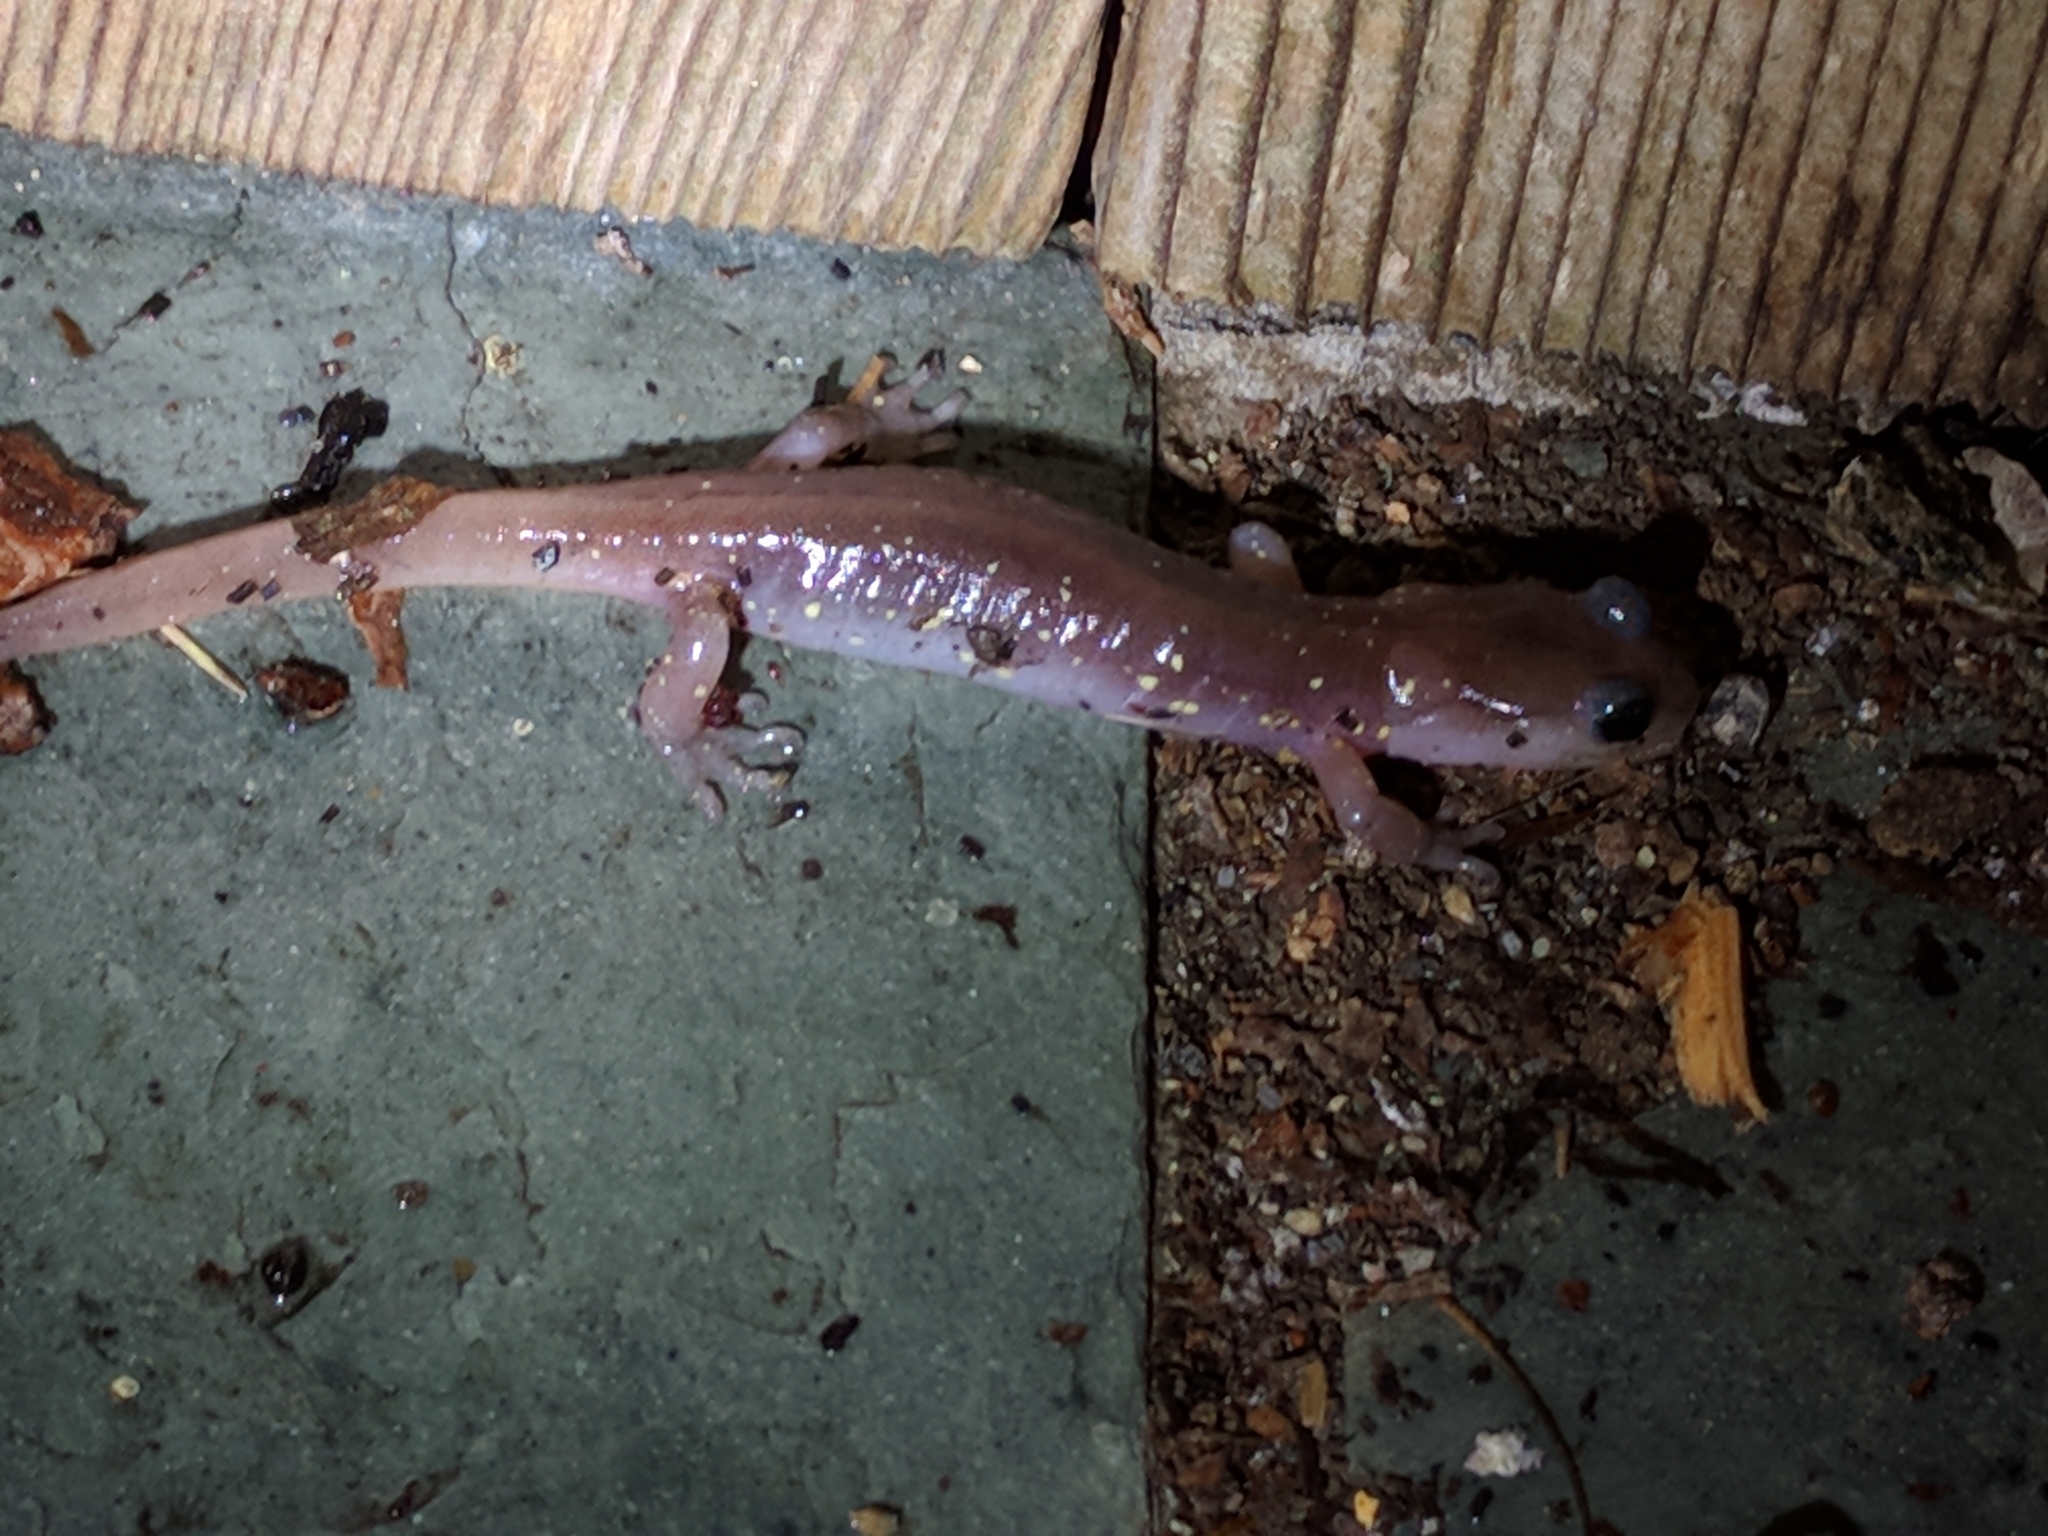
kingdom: Animalia
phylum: Chordata
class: Amphibia
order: Caudata
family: Plethodontidae
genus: Aneides
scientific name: Aneides lugubris
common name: Arboreal salamander
